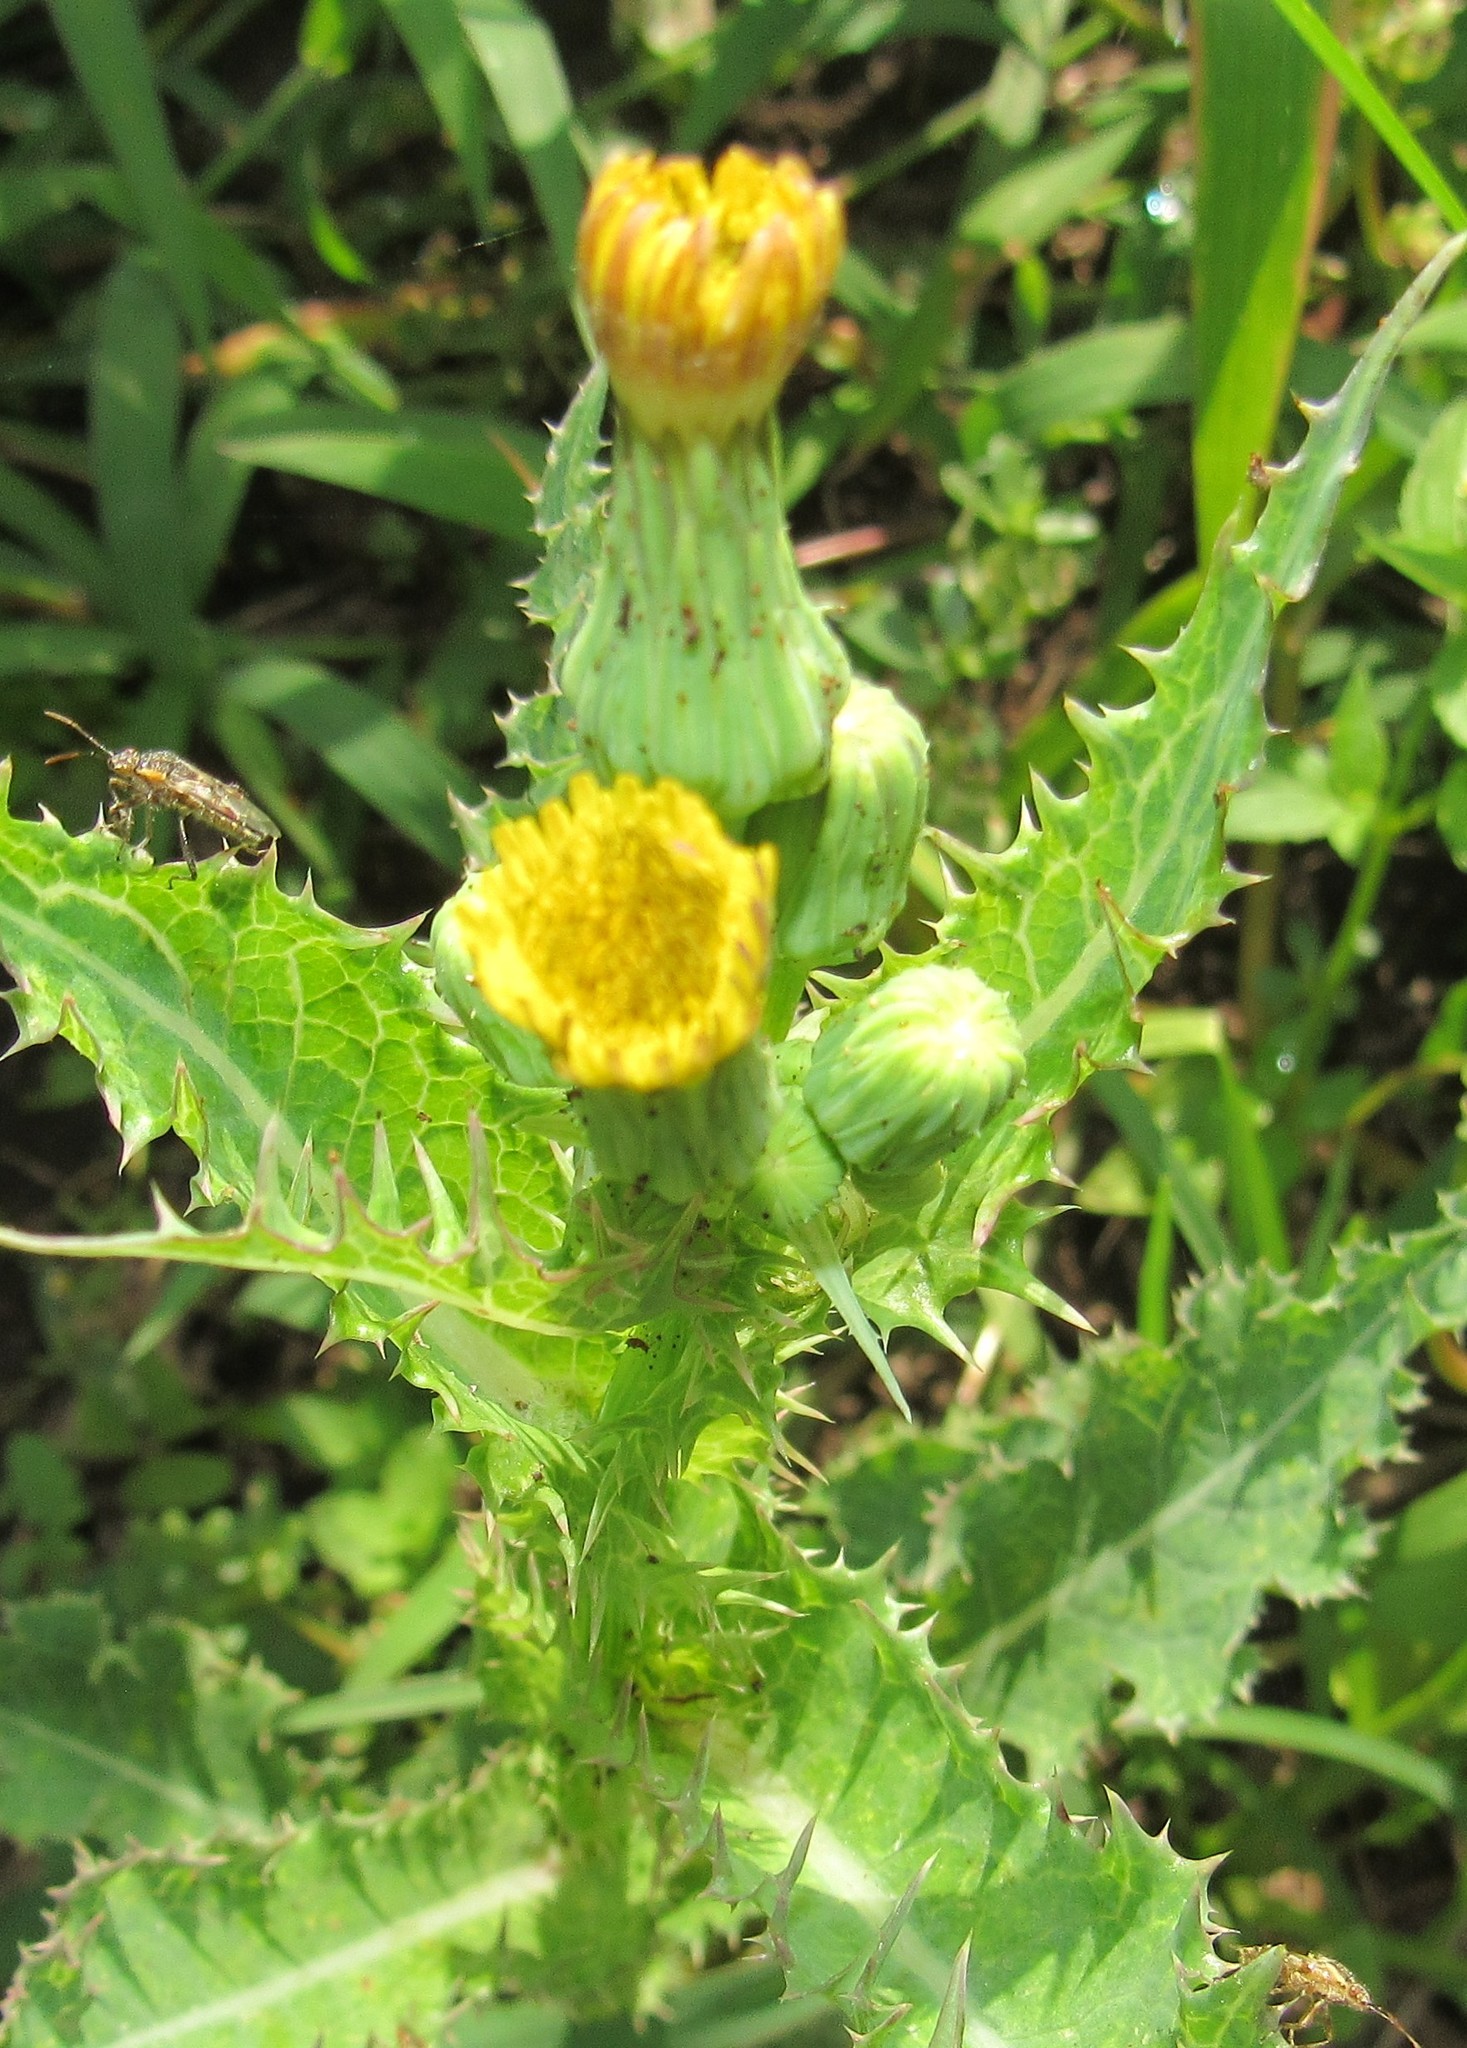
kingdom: Plantae
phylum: Tracheophyta
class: Magnoliopsida
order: Asterales
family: Asteraceae
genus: Sonchus
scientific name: Sonchus asper
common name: Prickly sow-thistle
